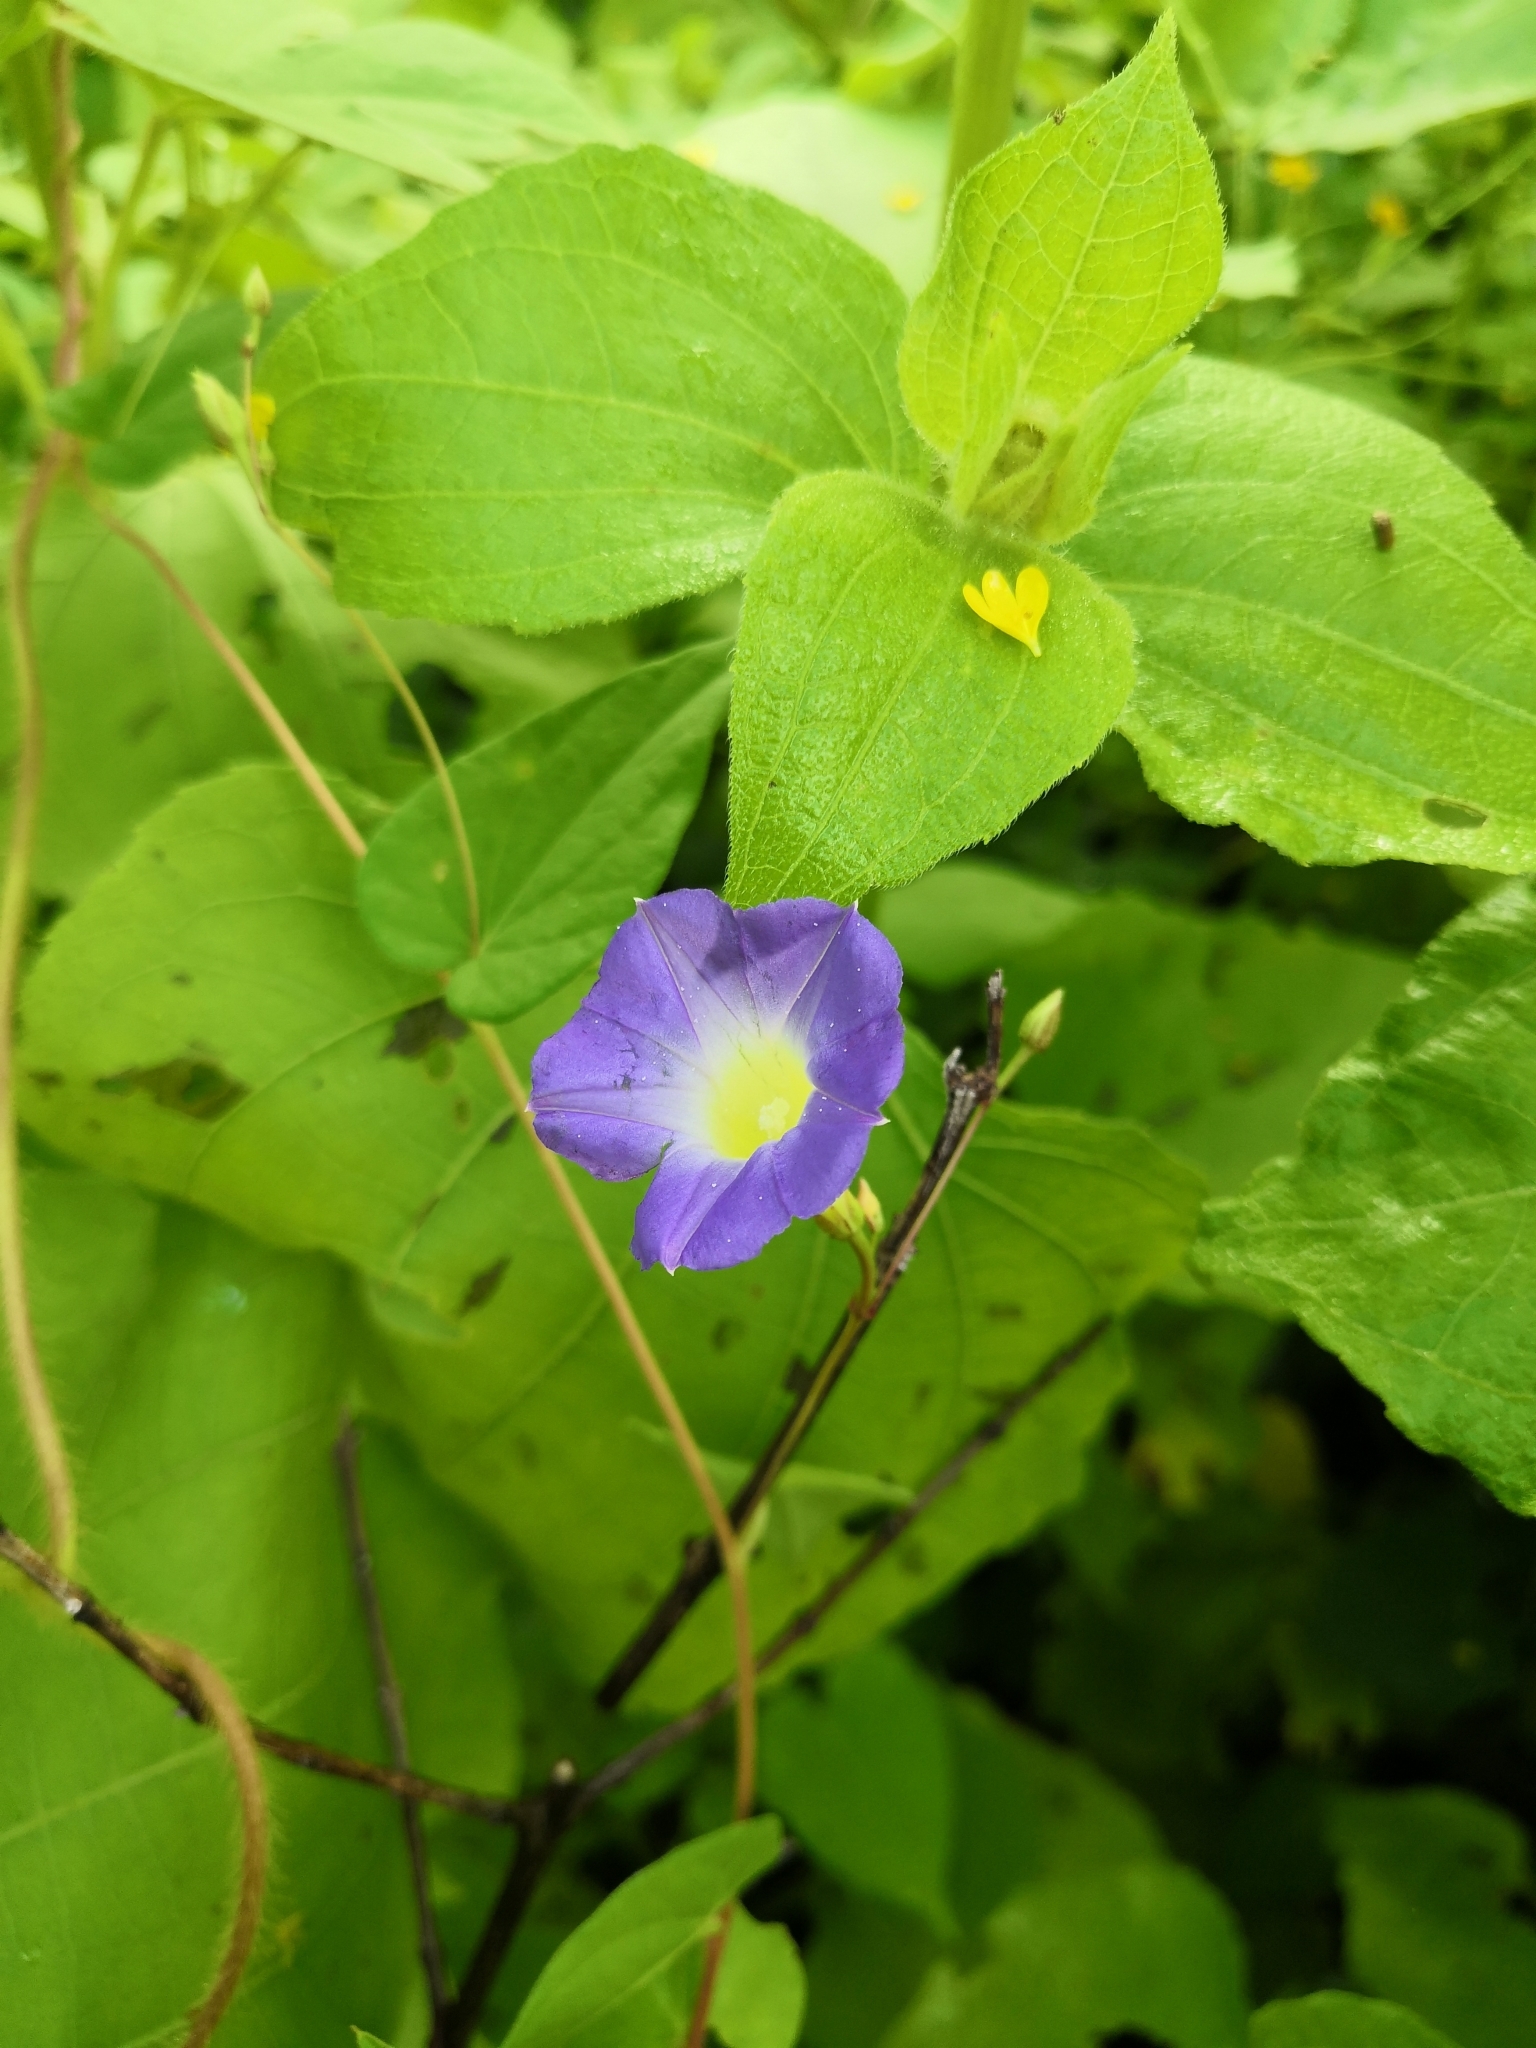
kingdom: Plantae
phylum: Tracheophyta
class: Magnoliopsida
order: Solanales
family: Convolvulaceae
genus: Ipomoea
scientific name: Ipomoea aristolochiifolia
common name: Aristolochia-leaved morning-glory
